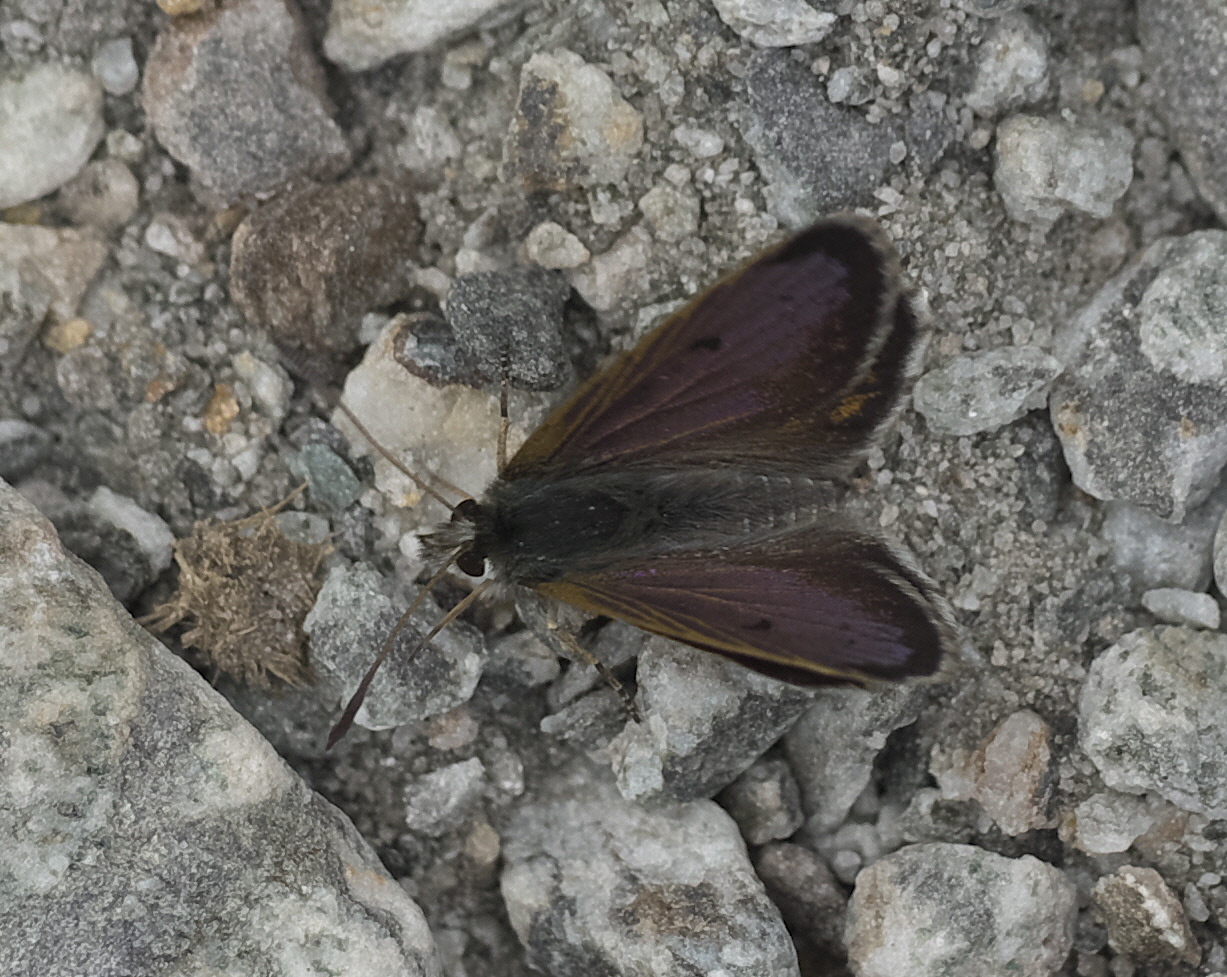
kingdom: Animalia
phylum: Arthropoda
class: Insecta
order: Lepidoptera
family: Lycaenidae
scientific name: Lycaenidae
